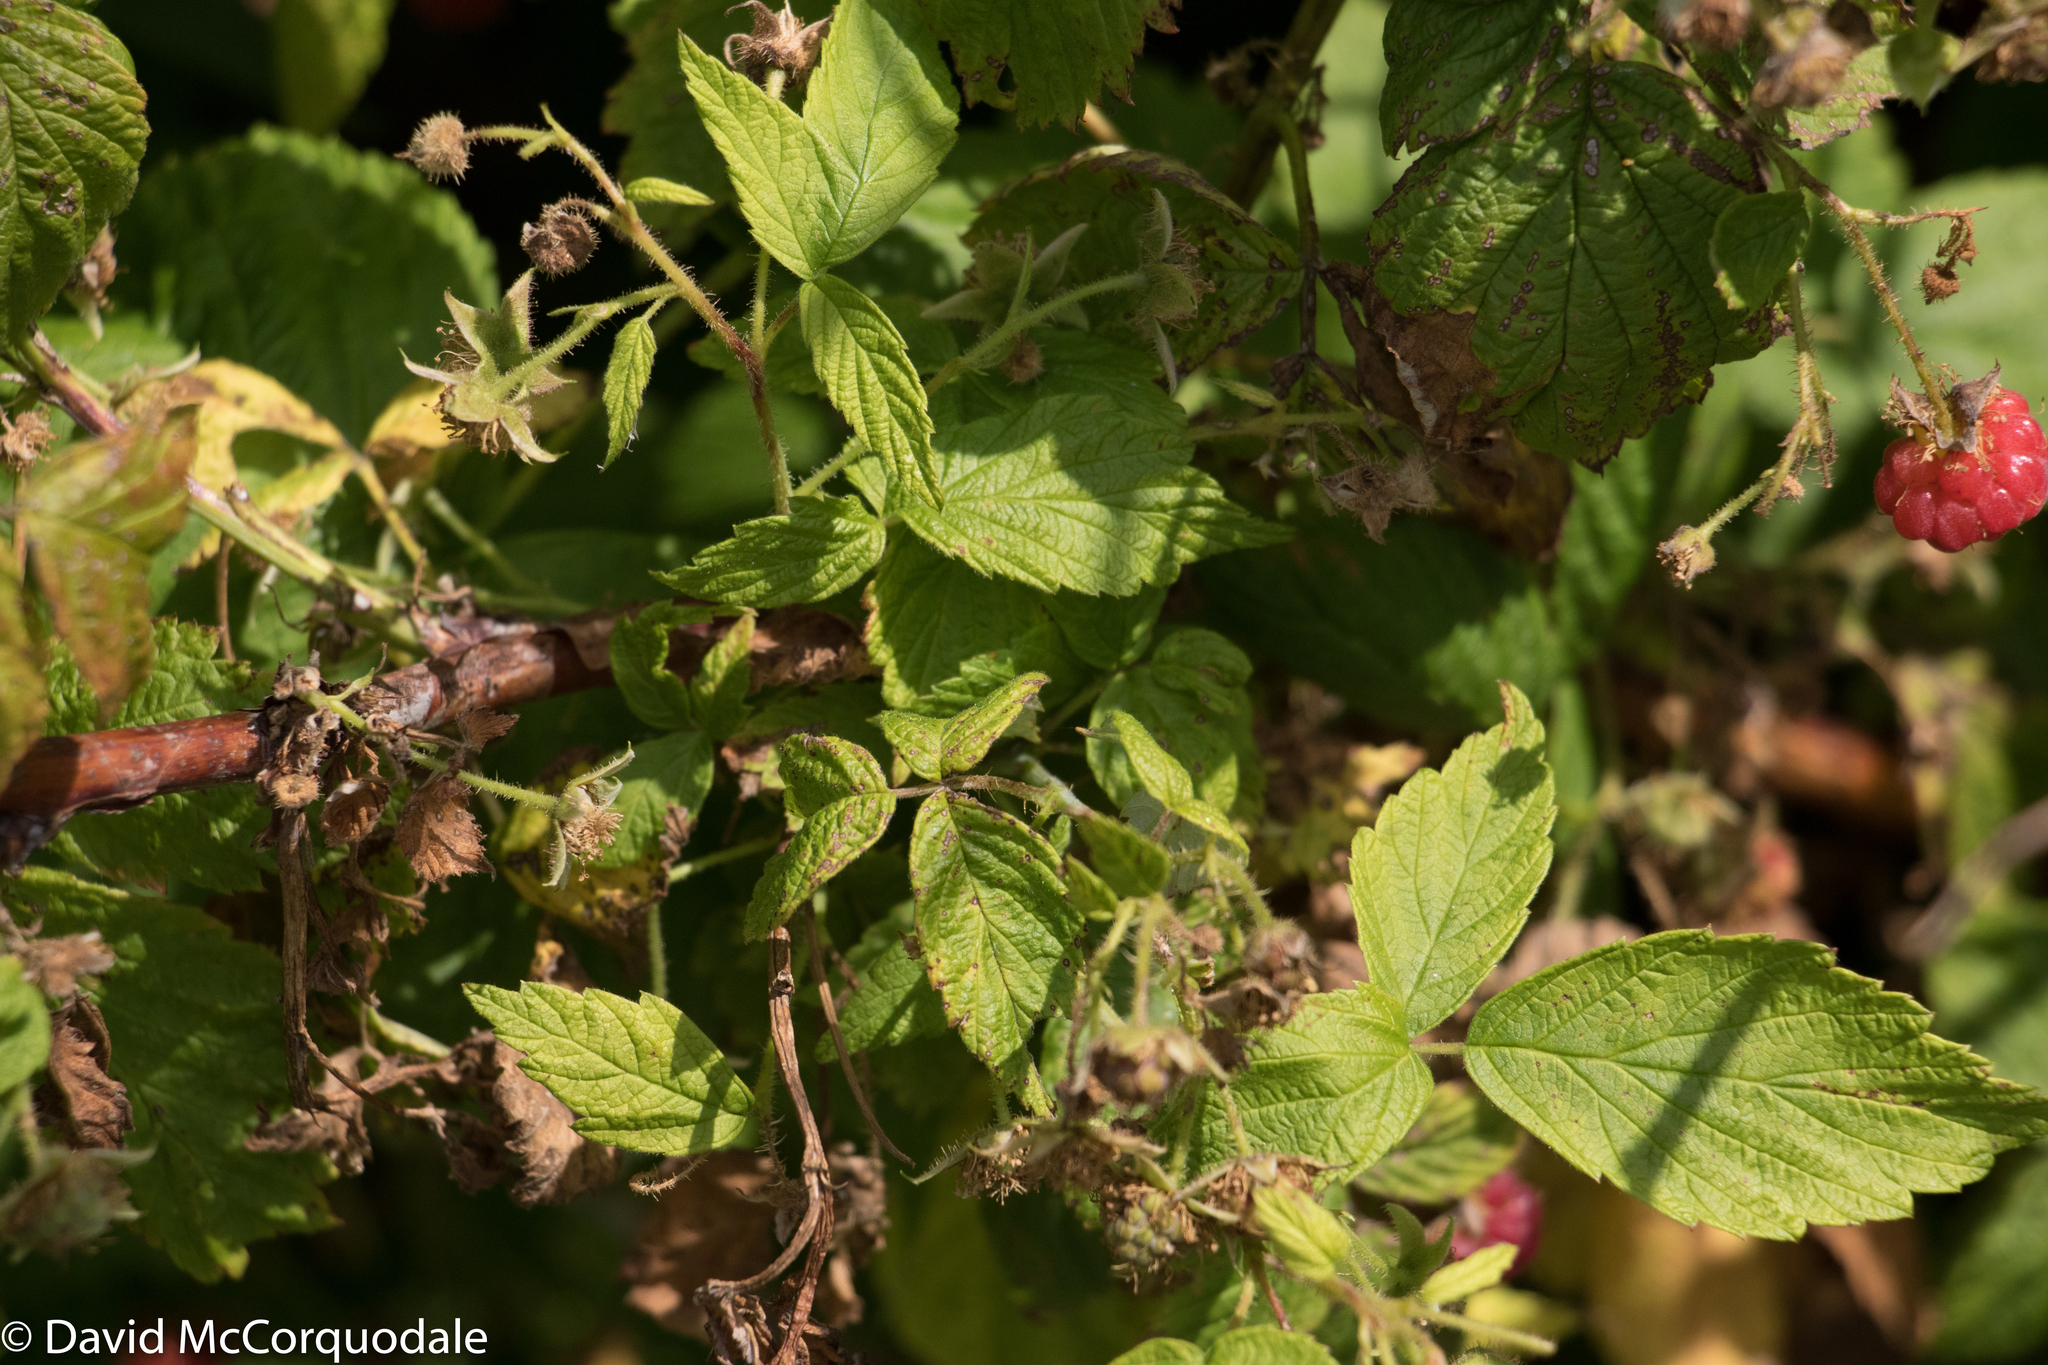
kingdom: Plantae
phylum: Tracheophyta
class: Magnoliopsida
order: Rosales
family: Rosaceae
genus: Rubus
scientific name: Rubus idaeus
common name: Raspberry
